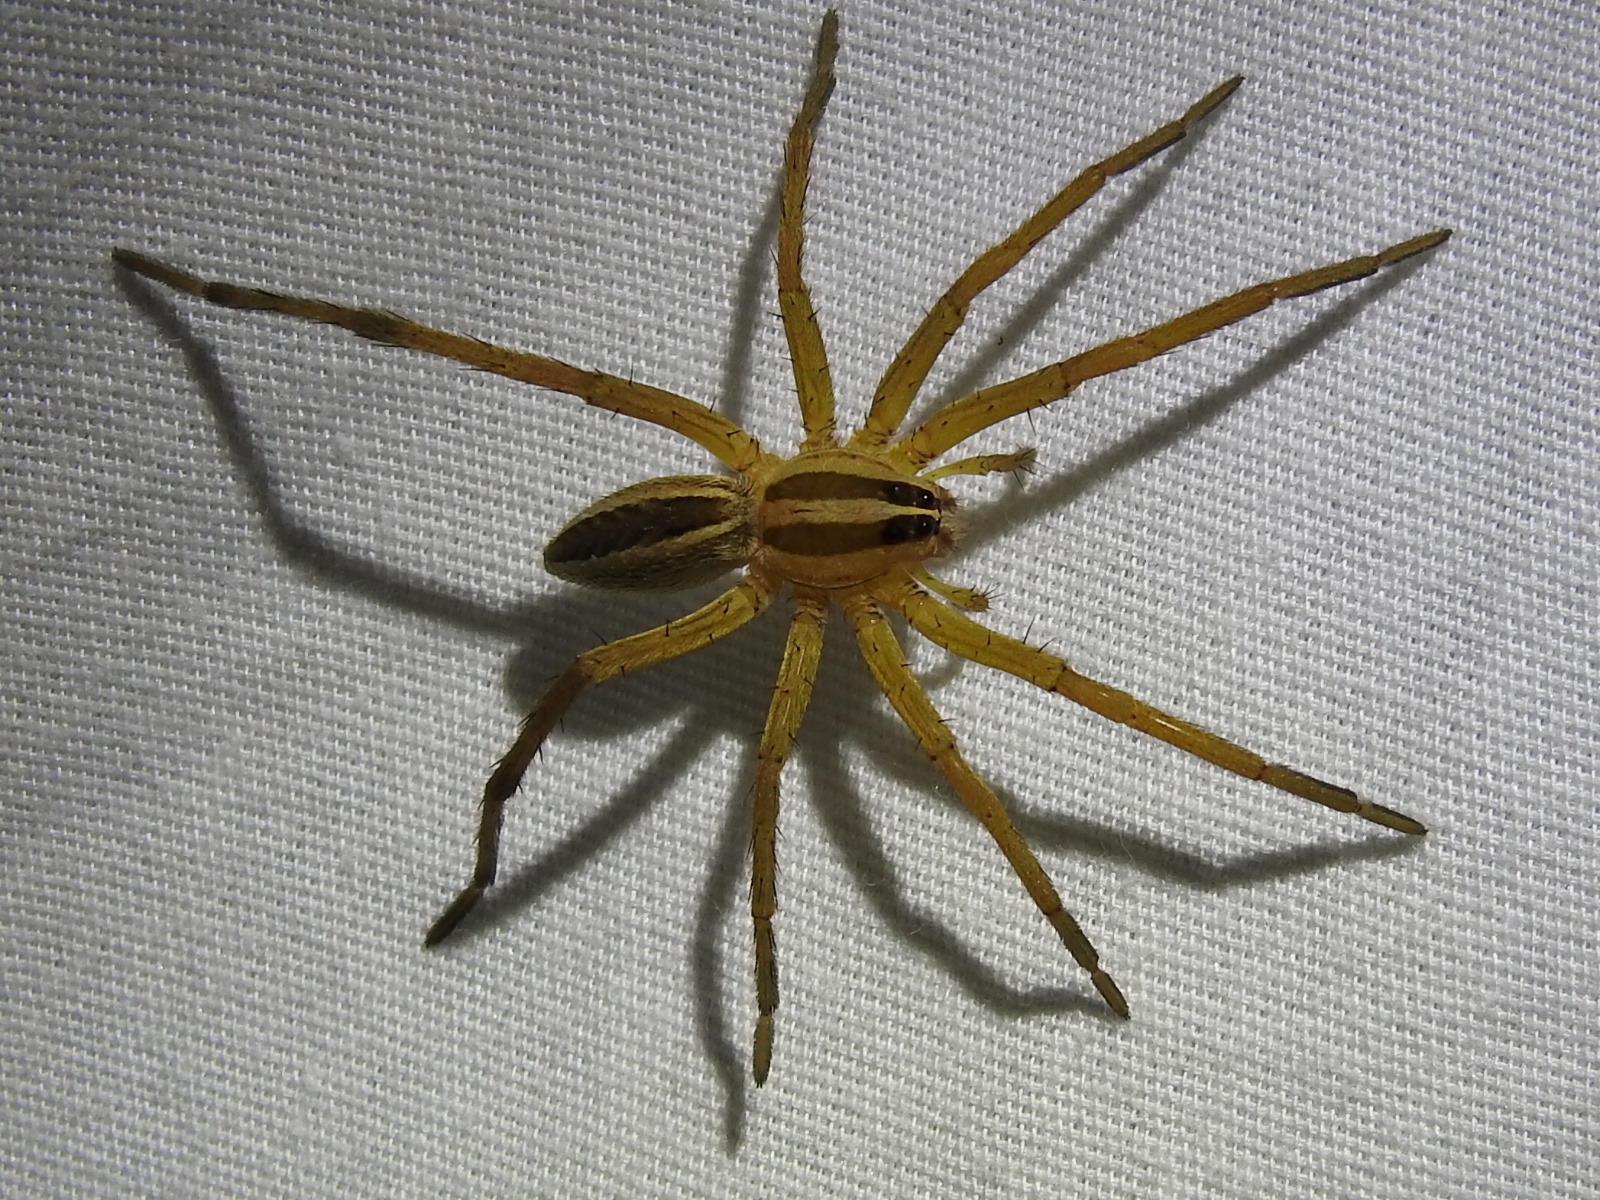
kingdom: Animalia
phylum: Arthropoda
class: Arachnida
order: Araneae
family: Lycosidae
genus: Rabidosa
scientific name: Rabidosa rabida
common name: Rabid wolf spider
